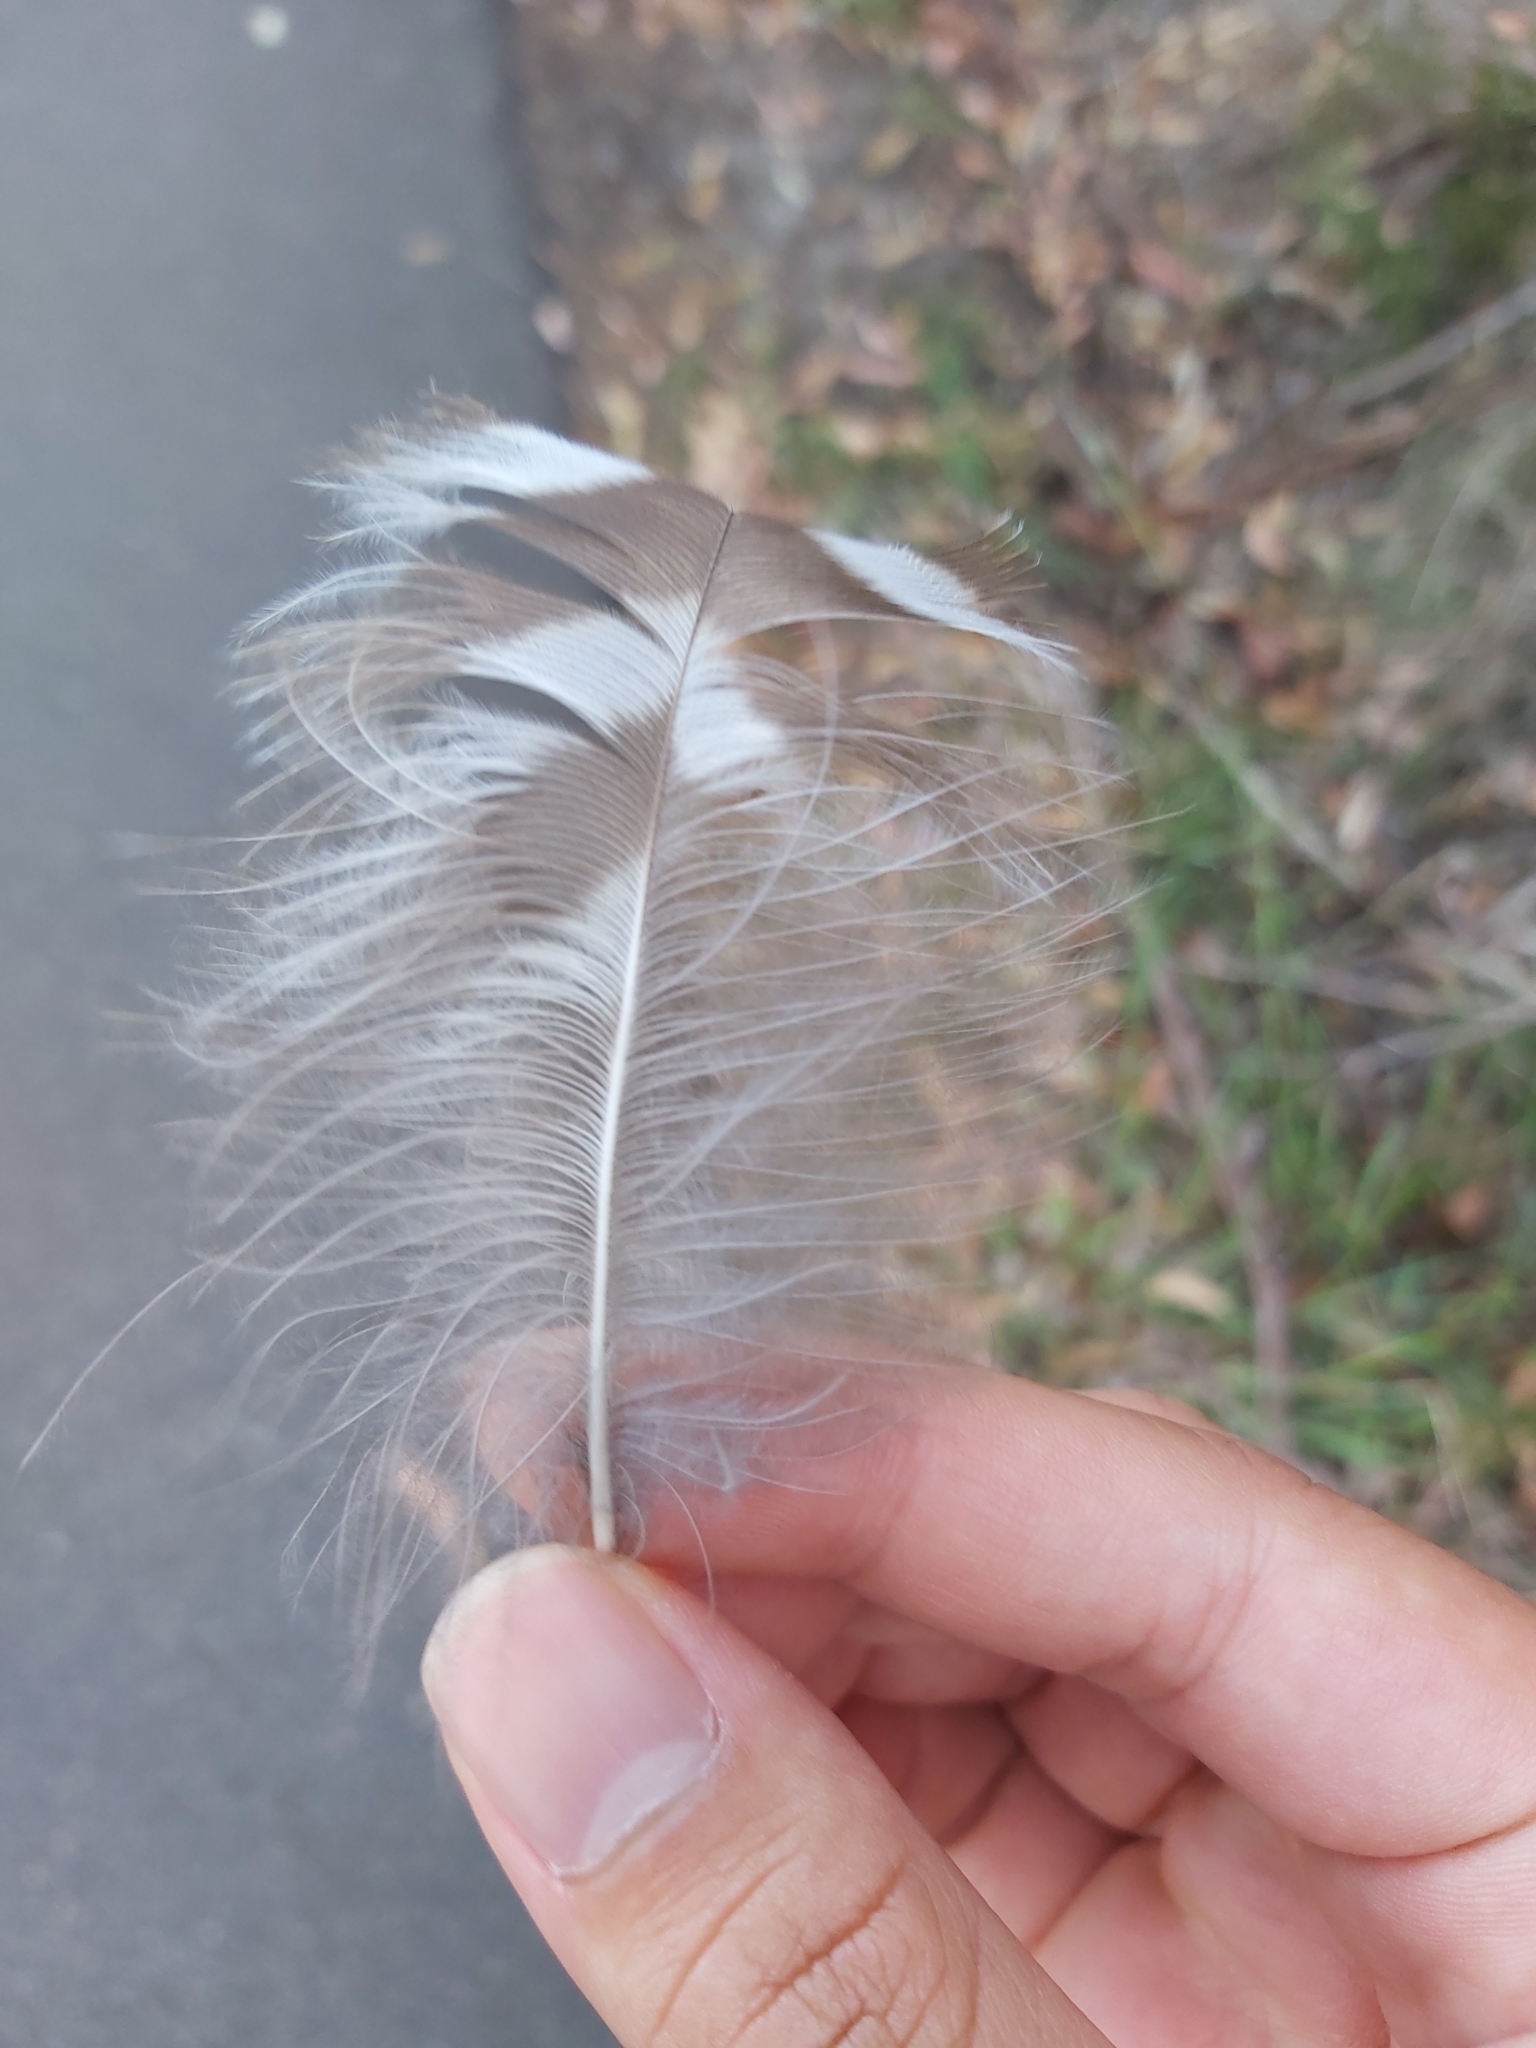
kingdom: Animalia
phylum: Chordata
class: Aves
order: Strigiformes
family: Strigidae
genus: Ninox
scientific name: Ninox strenua
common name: Powerful owl
